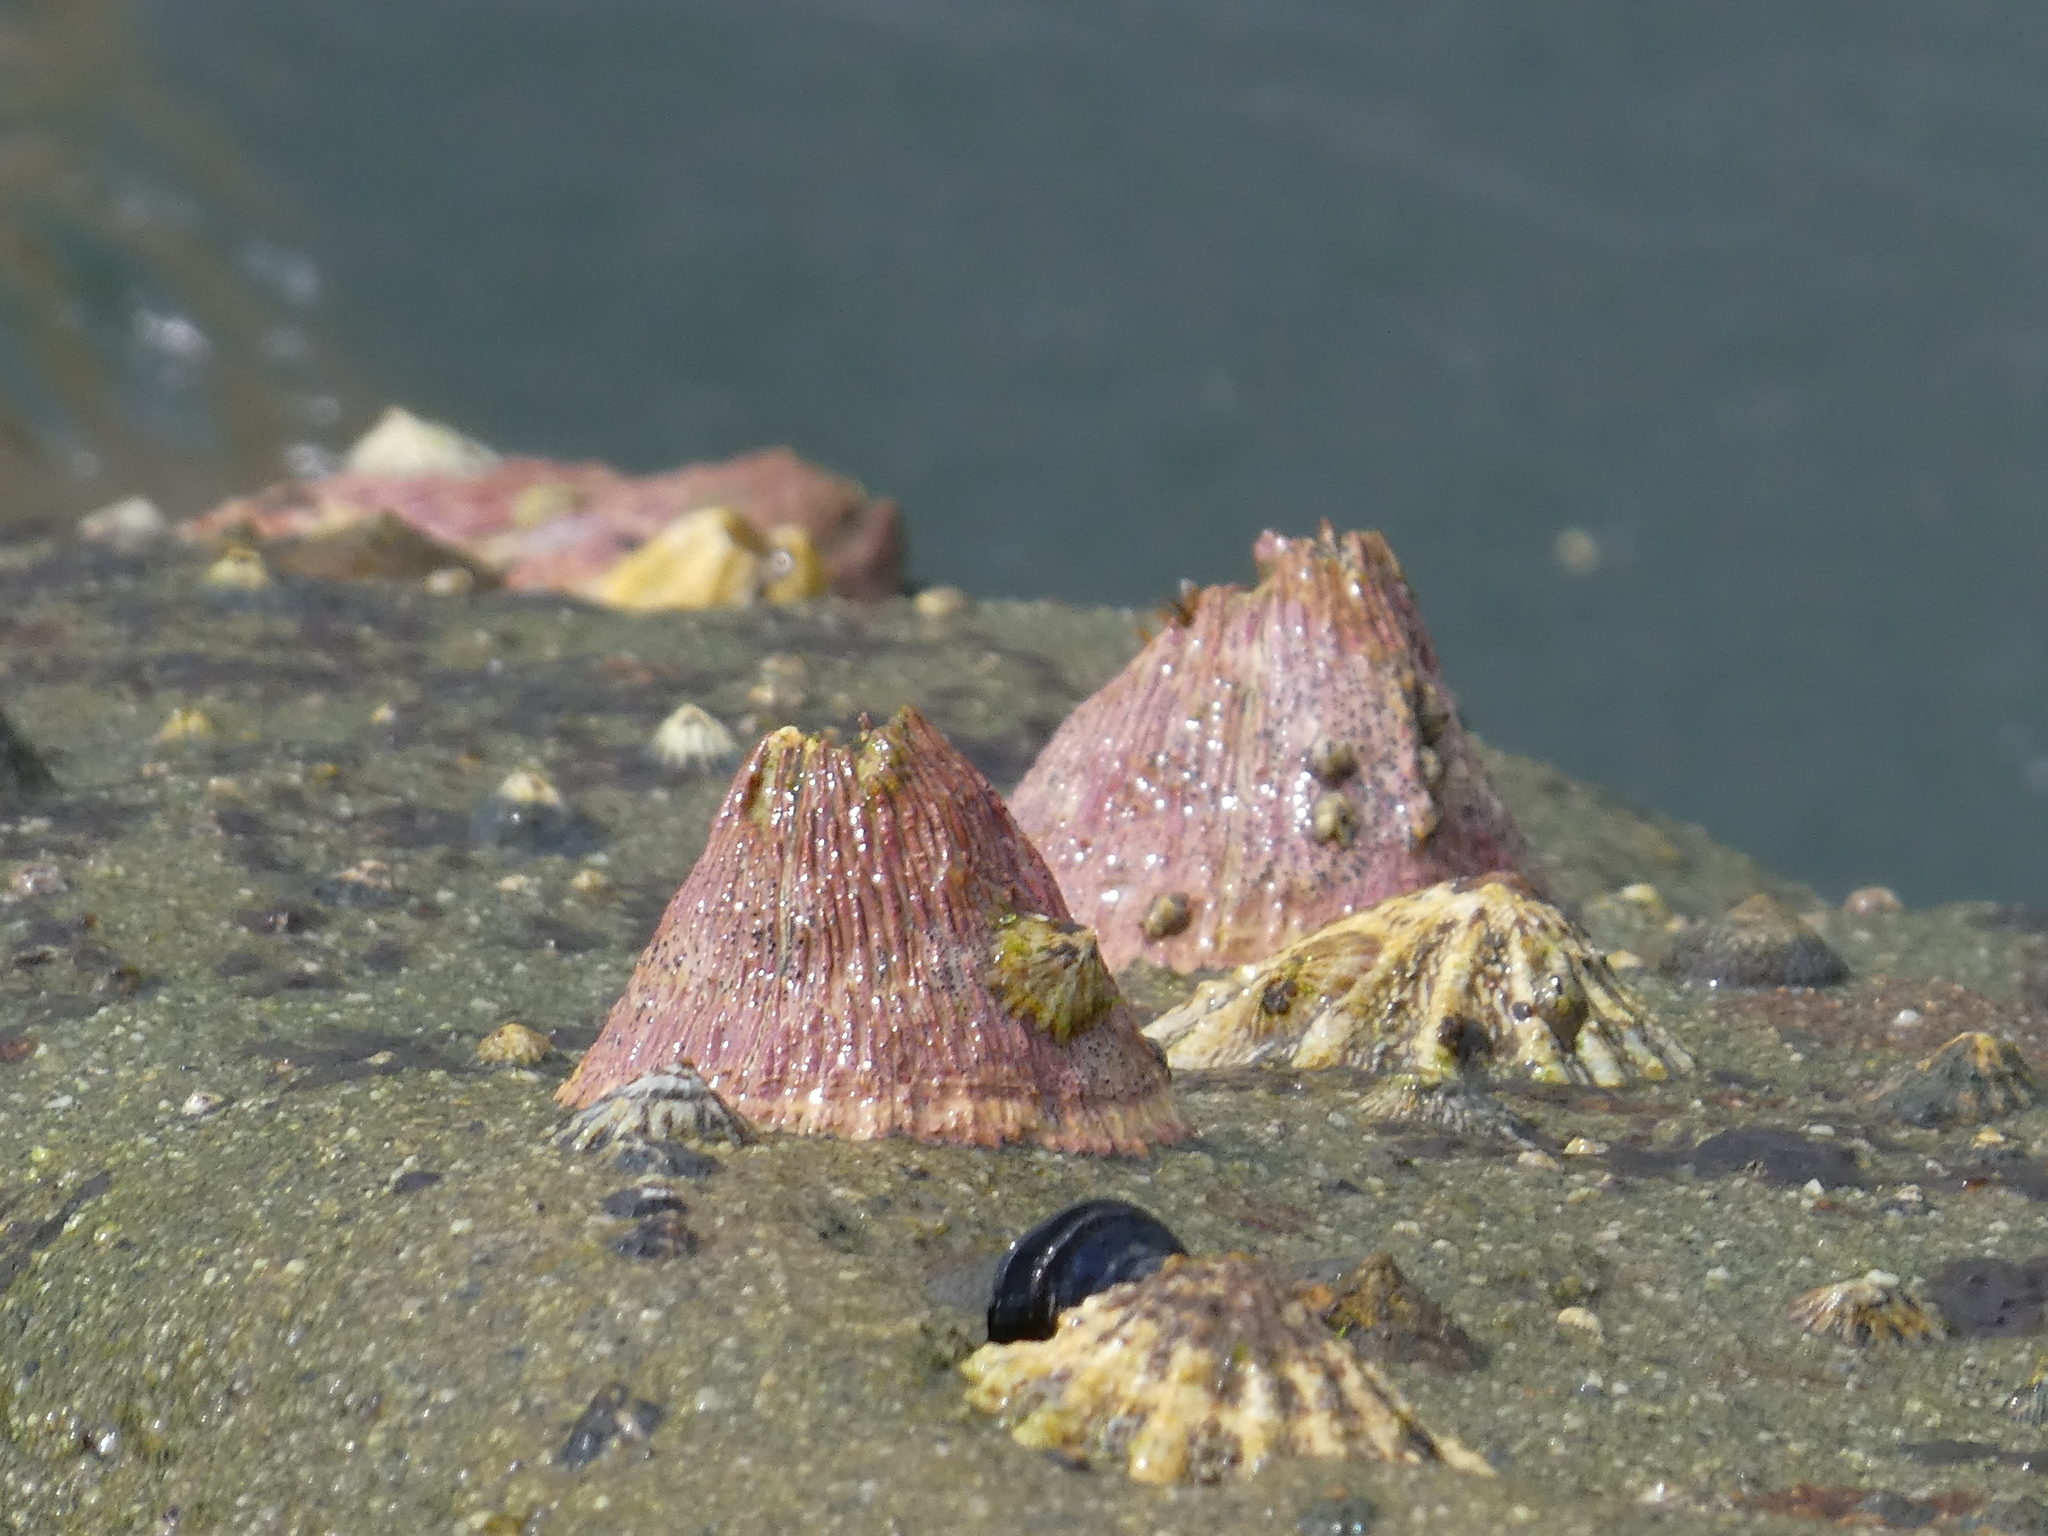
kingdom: Animalia
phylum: Arthropoda
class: Maxillopoda
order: Sessilia
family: Tetraclitidae
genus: Tetraclita
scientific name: Tetraclita rubescens
